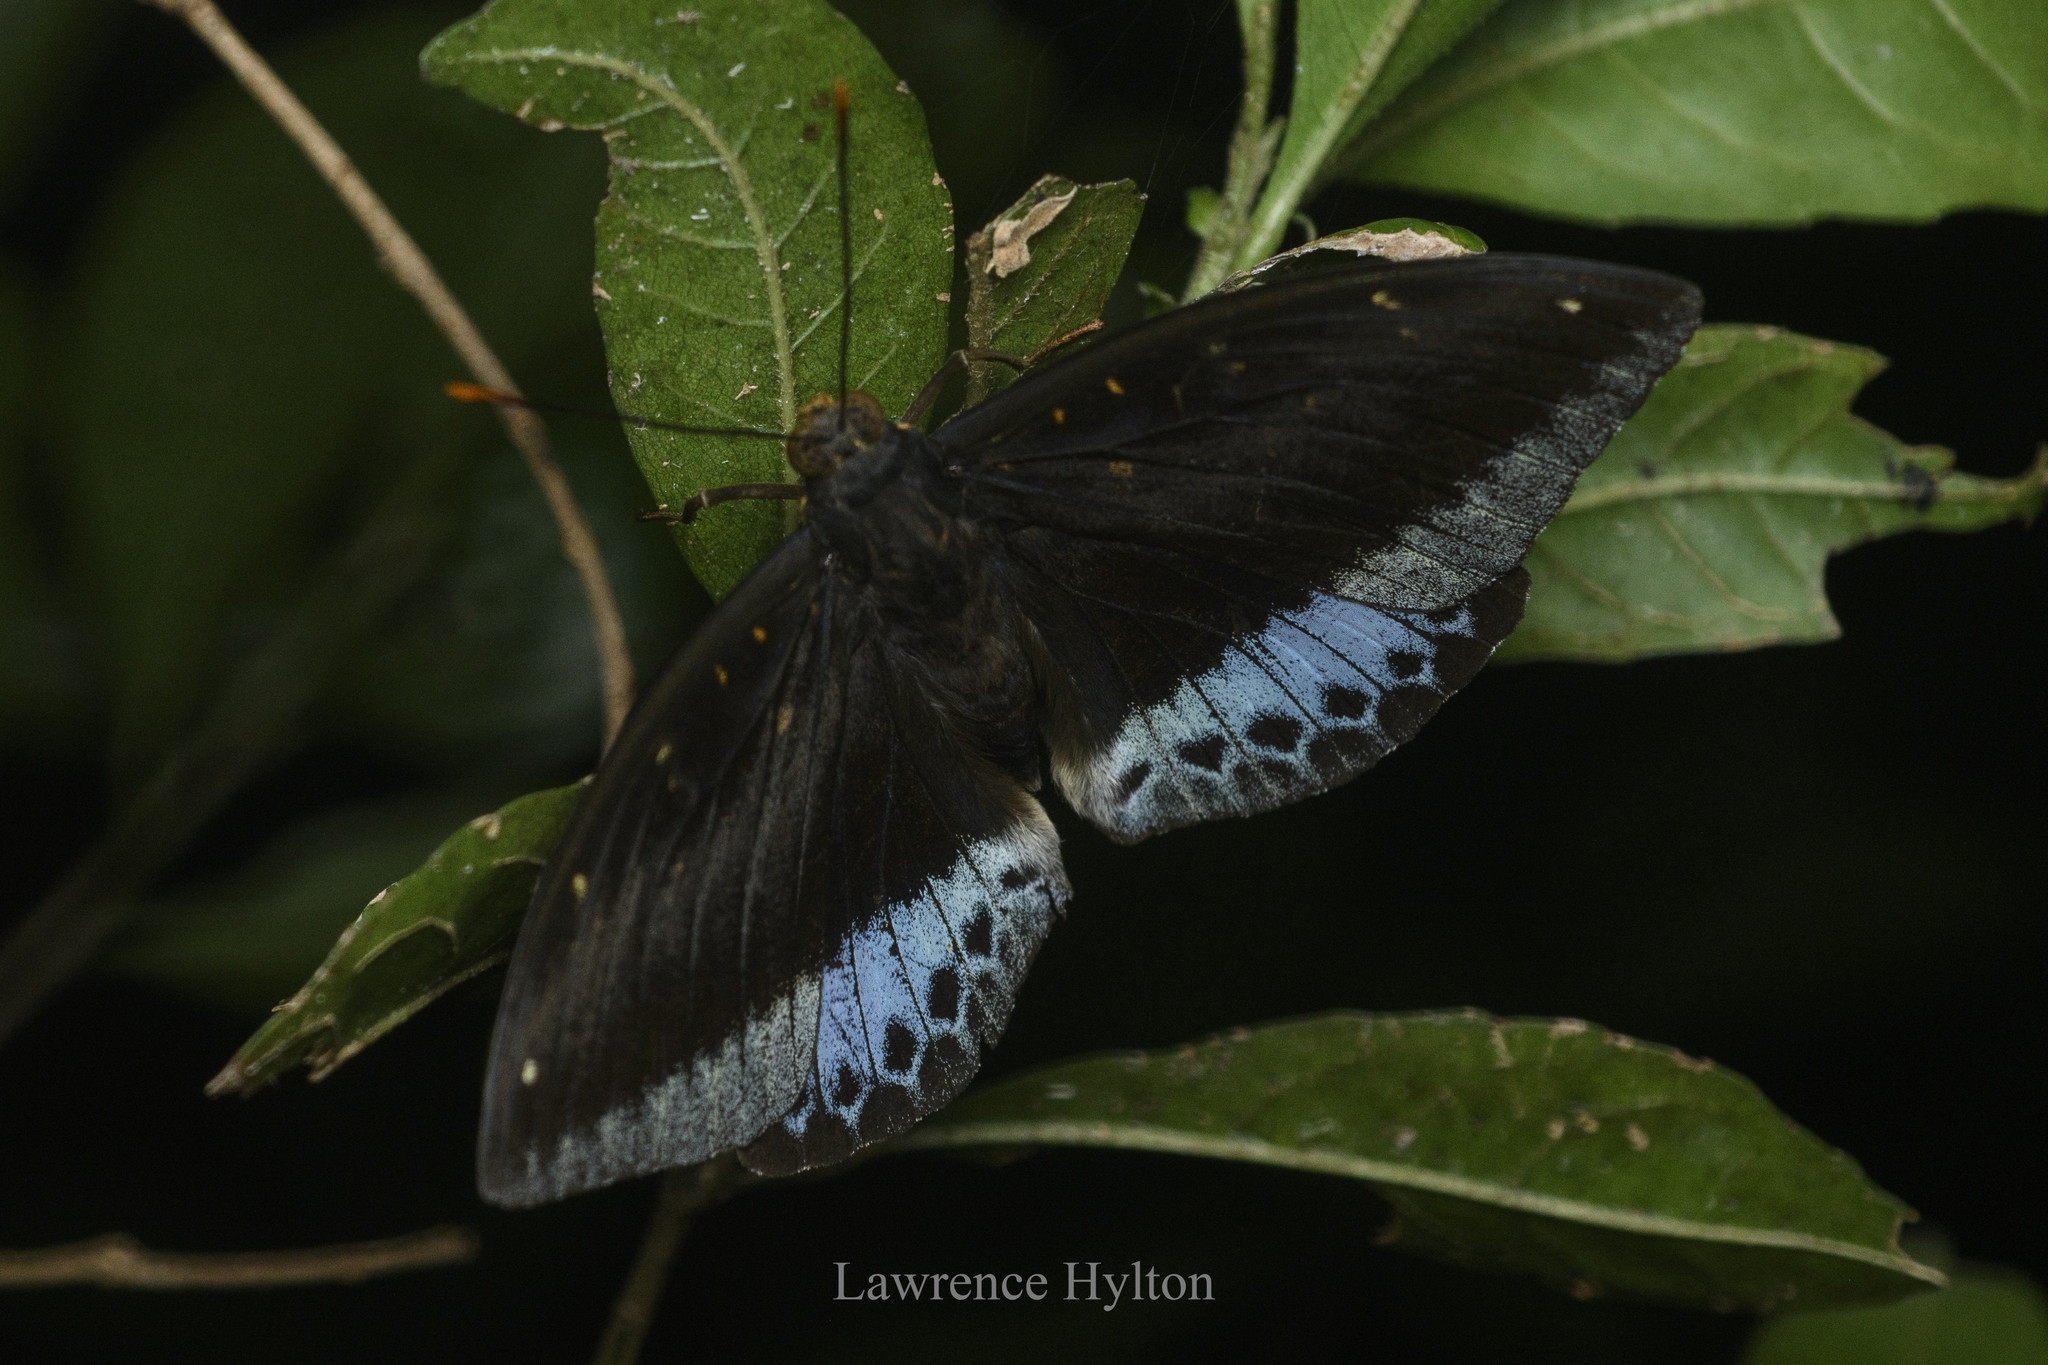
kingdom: Animalia
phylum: Arthropoda
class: Insecta
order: Lepidoptera
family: Nymphalidae
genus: Lexias
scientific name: Lexias pardalis
